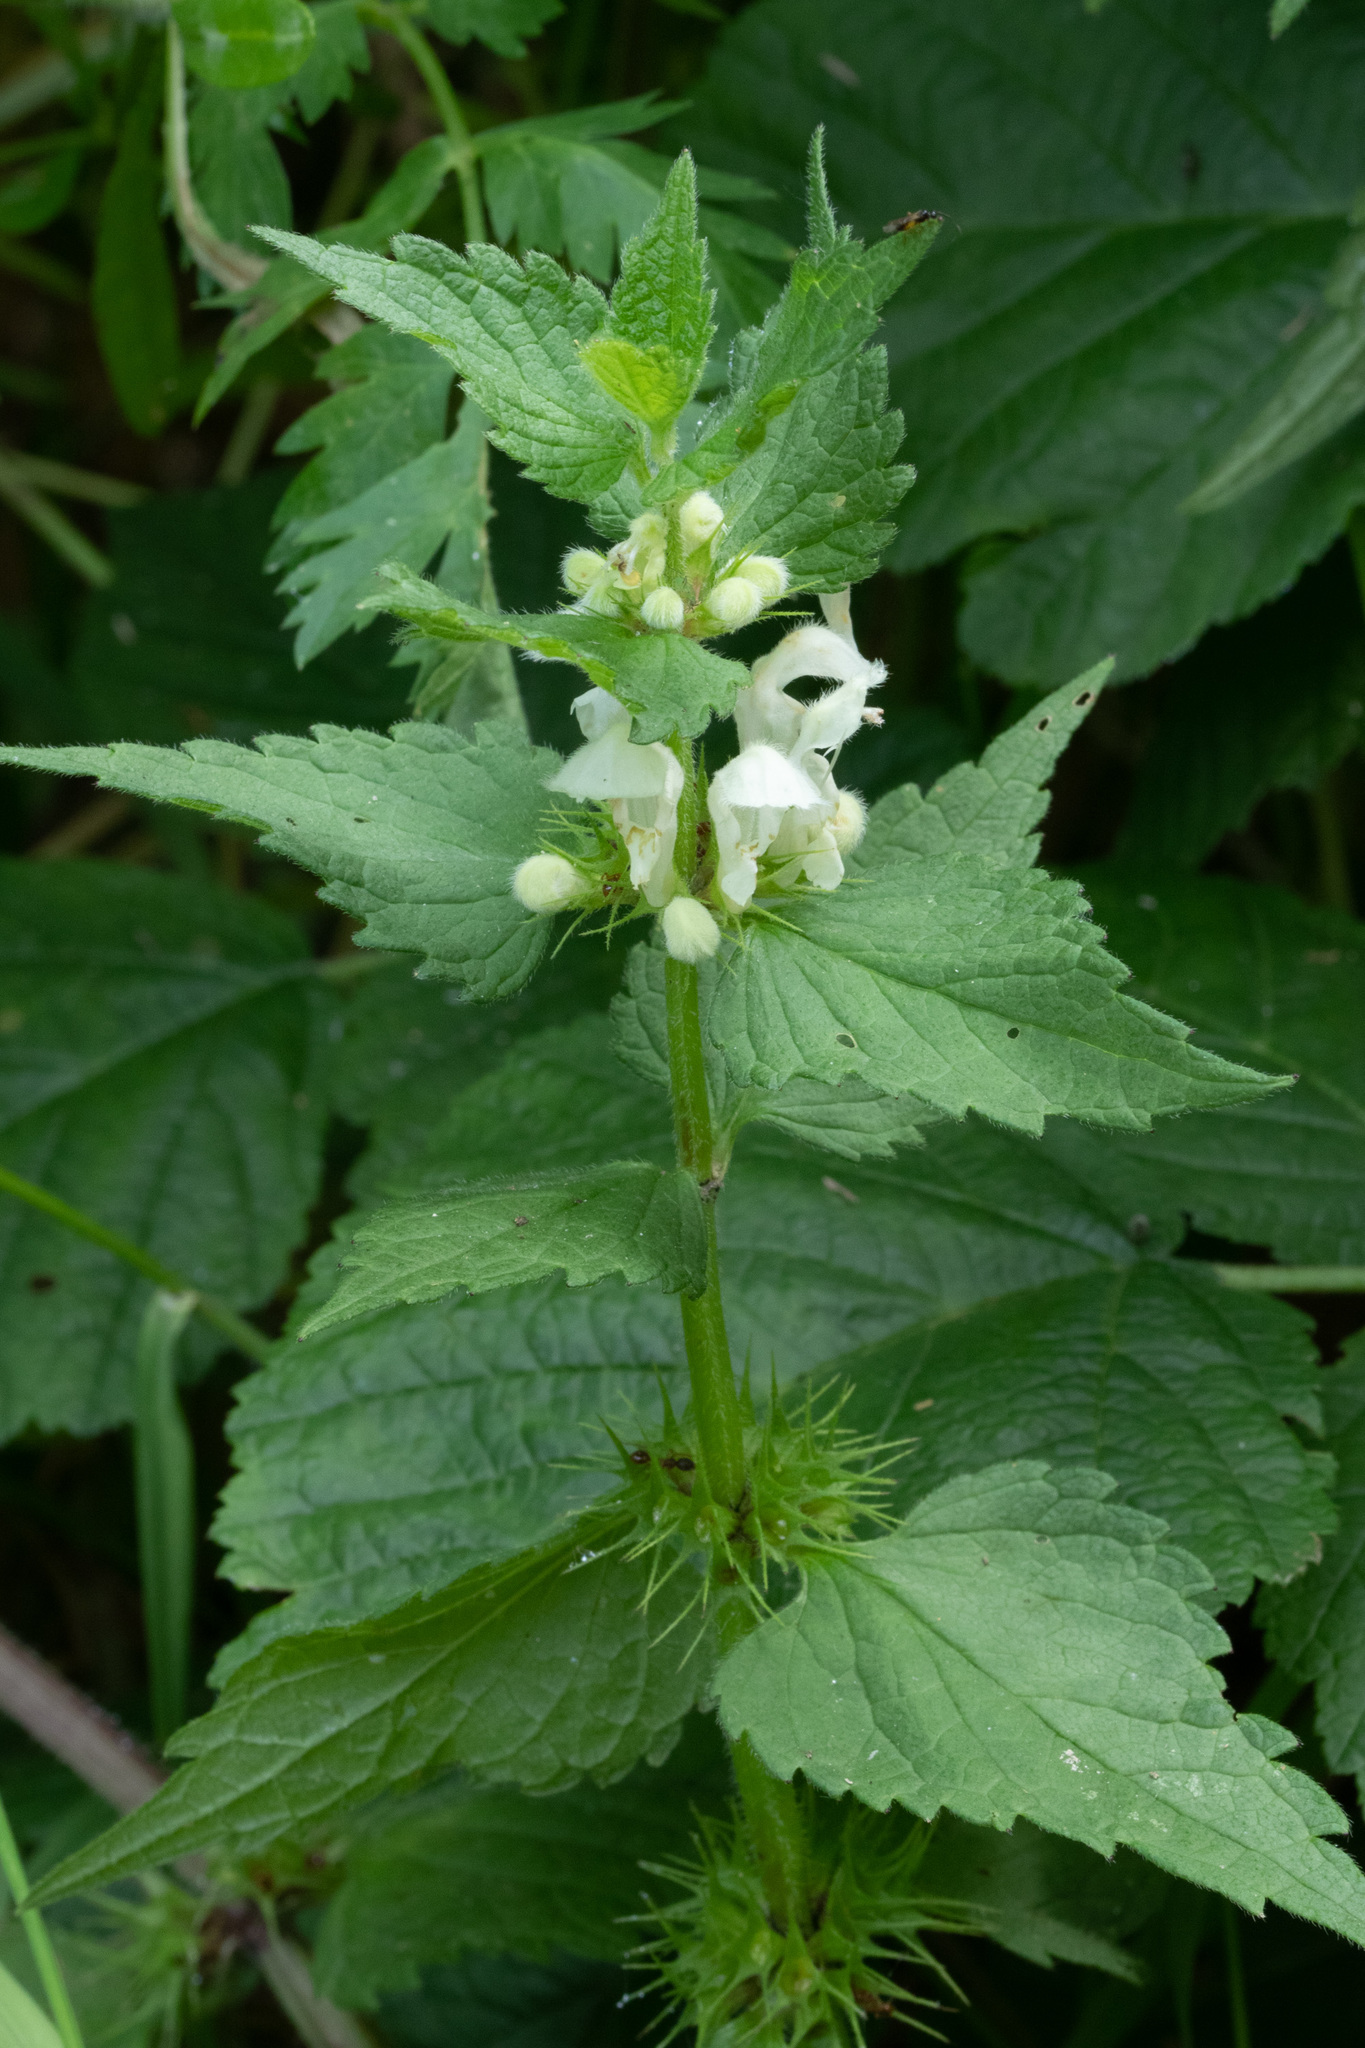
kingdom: Plantae
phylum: Tracheophyta
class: Magnoliopsida
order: Lamiales
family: Lamiaceae
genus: Lamium
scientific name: Lamium album
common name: White dead-nettle
